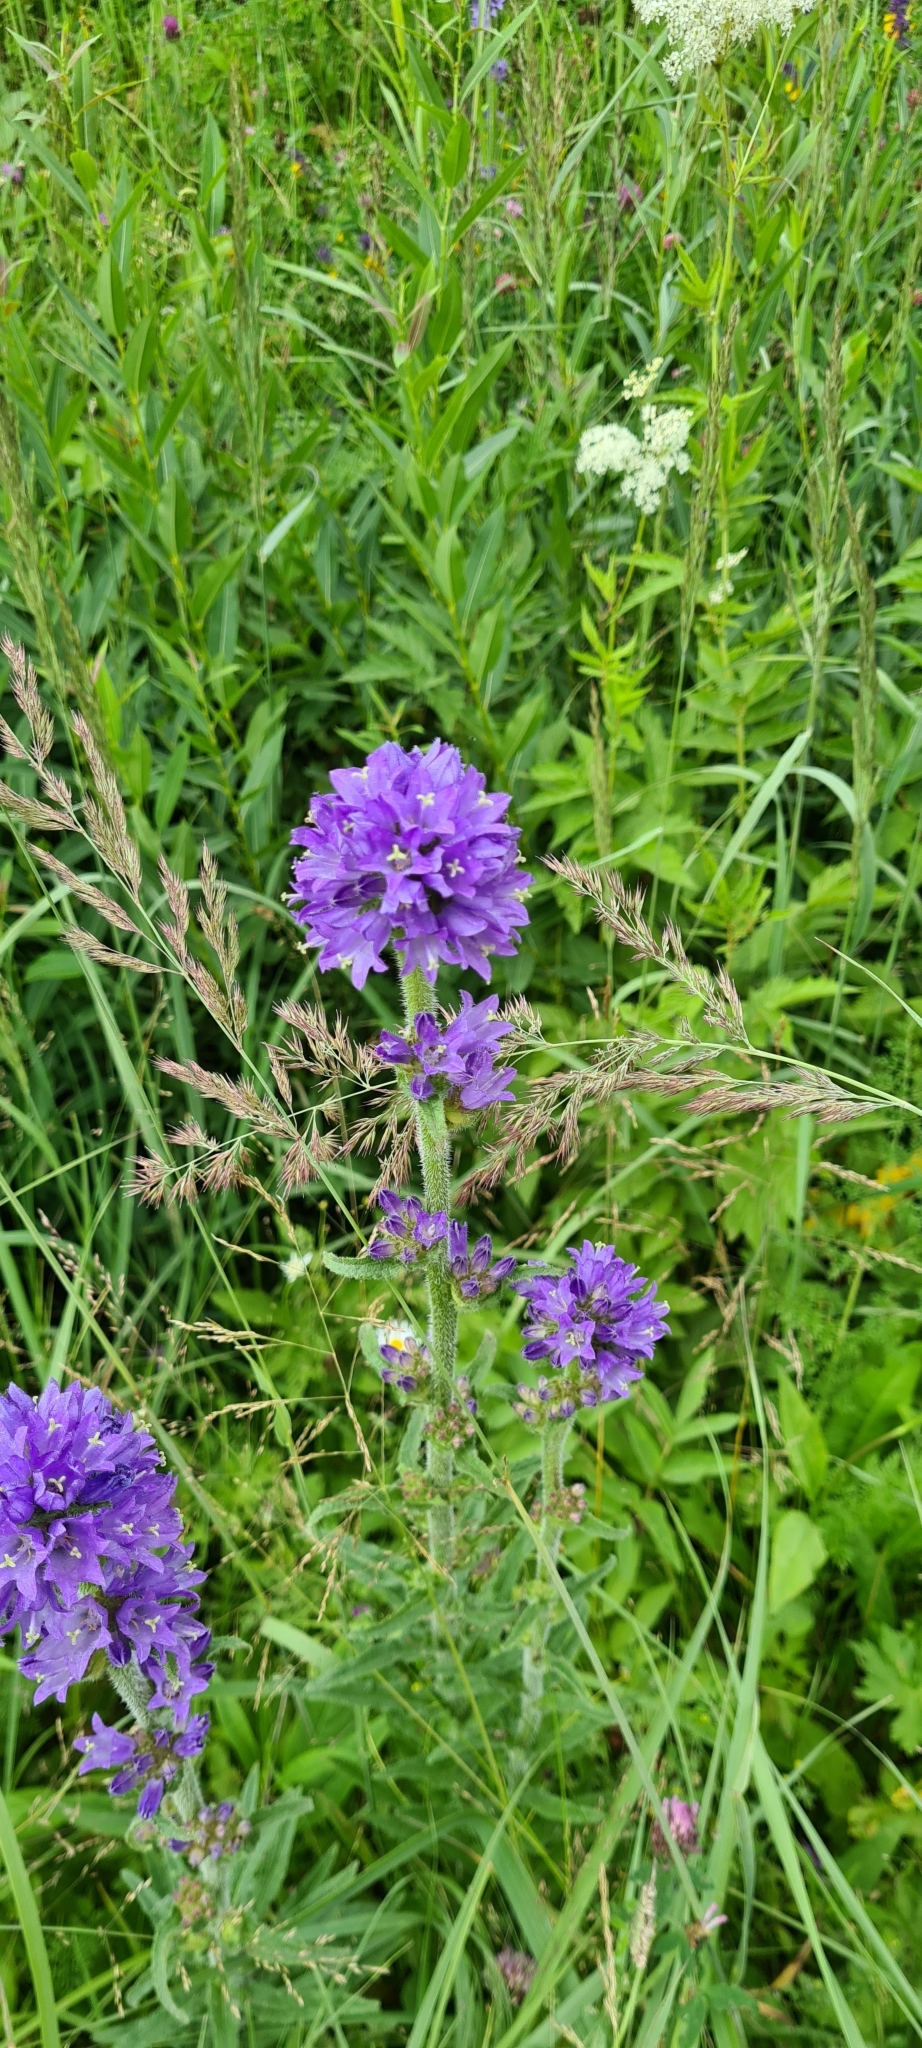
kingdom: Plantae
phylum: Tracheophyta
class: Magnoliopsida
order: Asterales
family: Campanulaceae
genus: Campanula
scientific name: Campanula cervicaria
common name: Bristly bellflower
